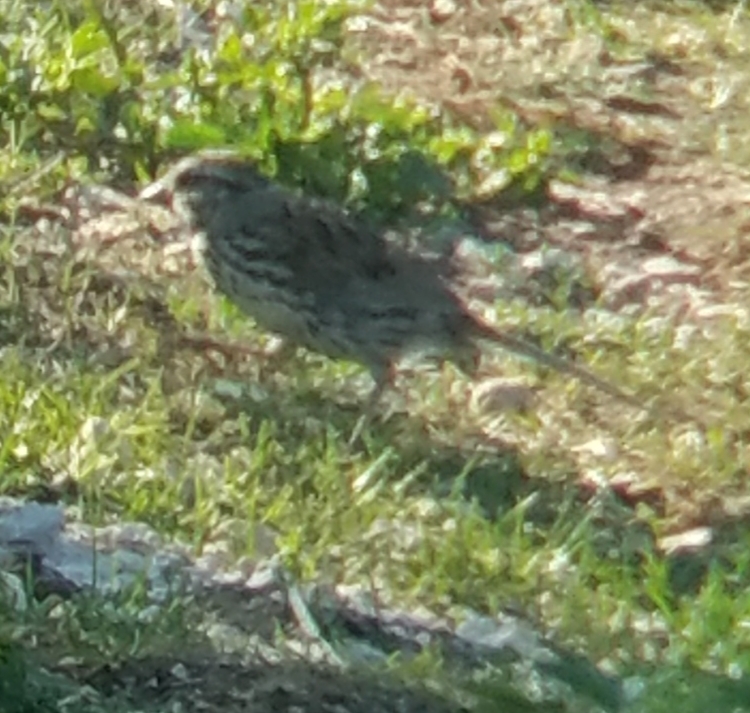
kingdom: Animalia
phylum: Chordata
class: Aves
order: Passeriformes
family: Passerellidae
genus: Melospiza
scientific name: Melospiza melodia
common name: Song sparrow
